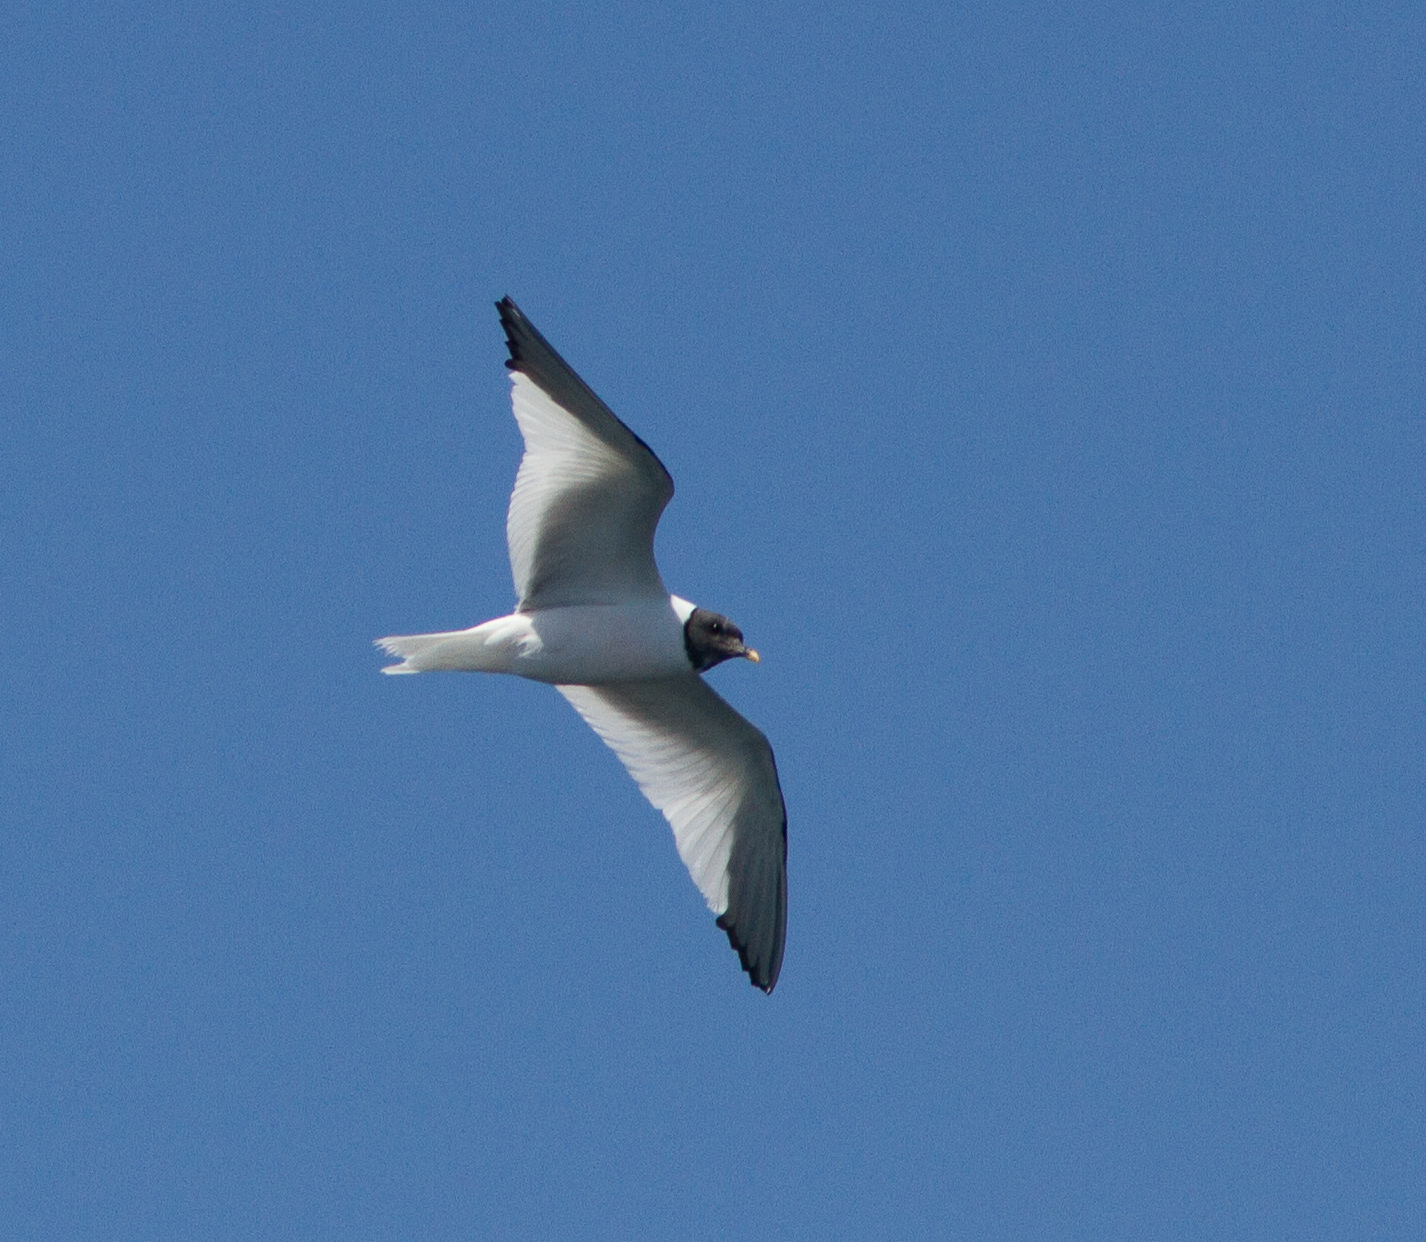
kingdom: Animalia
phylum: Chordata
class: Aves
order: Charadriiformes
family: Laridae
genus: Xema
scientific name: Xema sabini
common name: Sabine's gull
